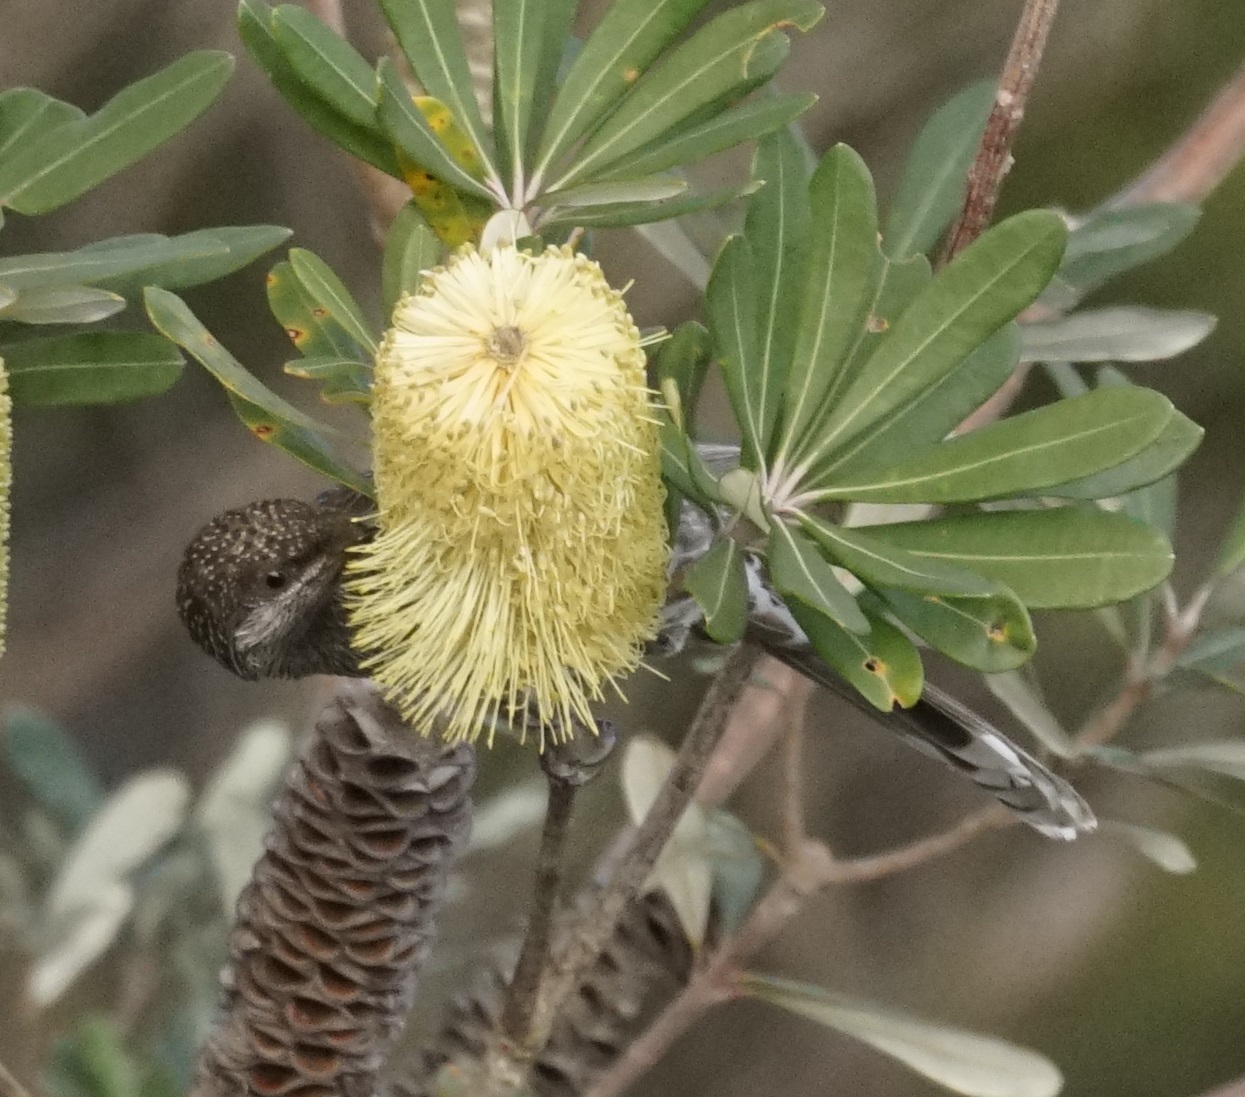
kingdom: Animalia
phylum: Chordata
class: Aves
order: Passeriformes
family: Meliphagidae
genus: Anthochaera
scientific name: Anthochaera chrysoptera
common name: Little wattlebird
